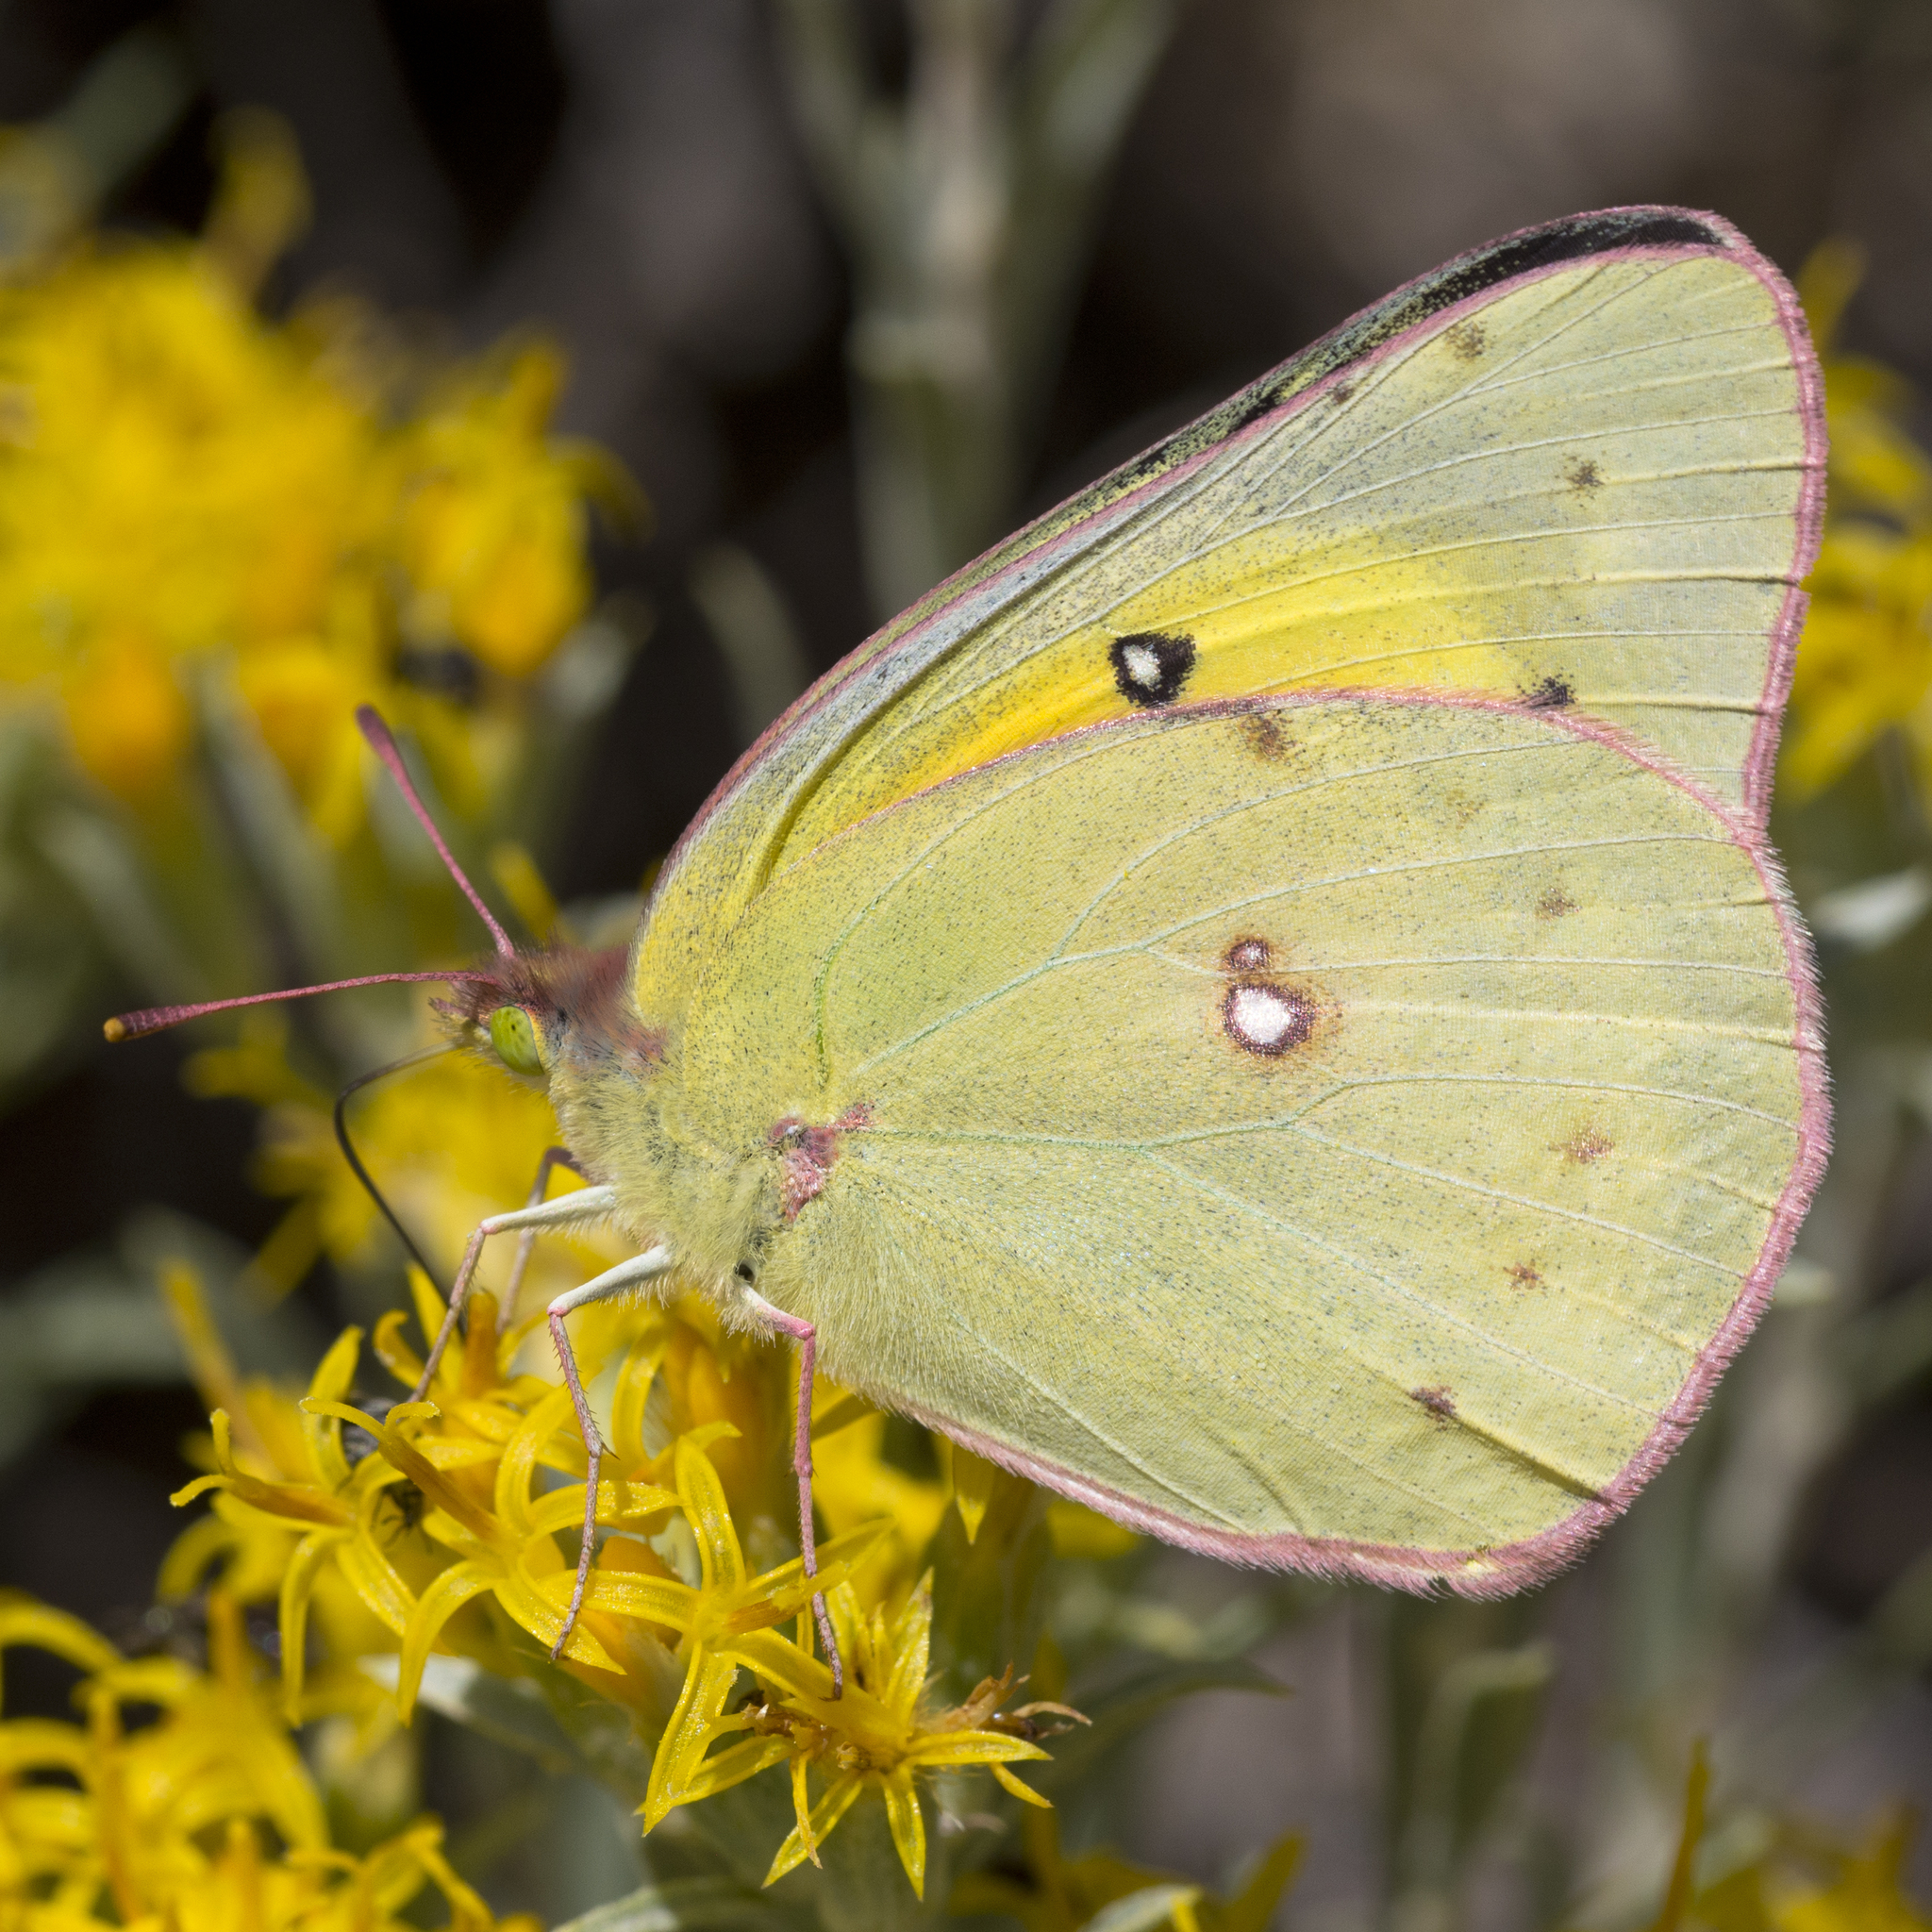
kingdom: Animalia
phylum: Arthropoda
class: Insecta
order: Lepidoptera
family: Pieridae
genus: Colias
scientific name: Colias eurytheme
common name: Alfalfa butterfly
